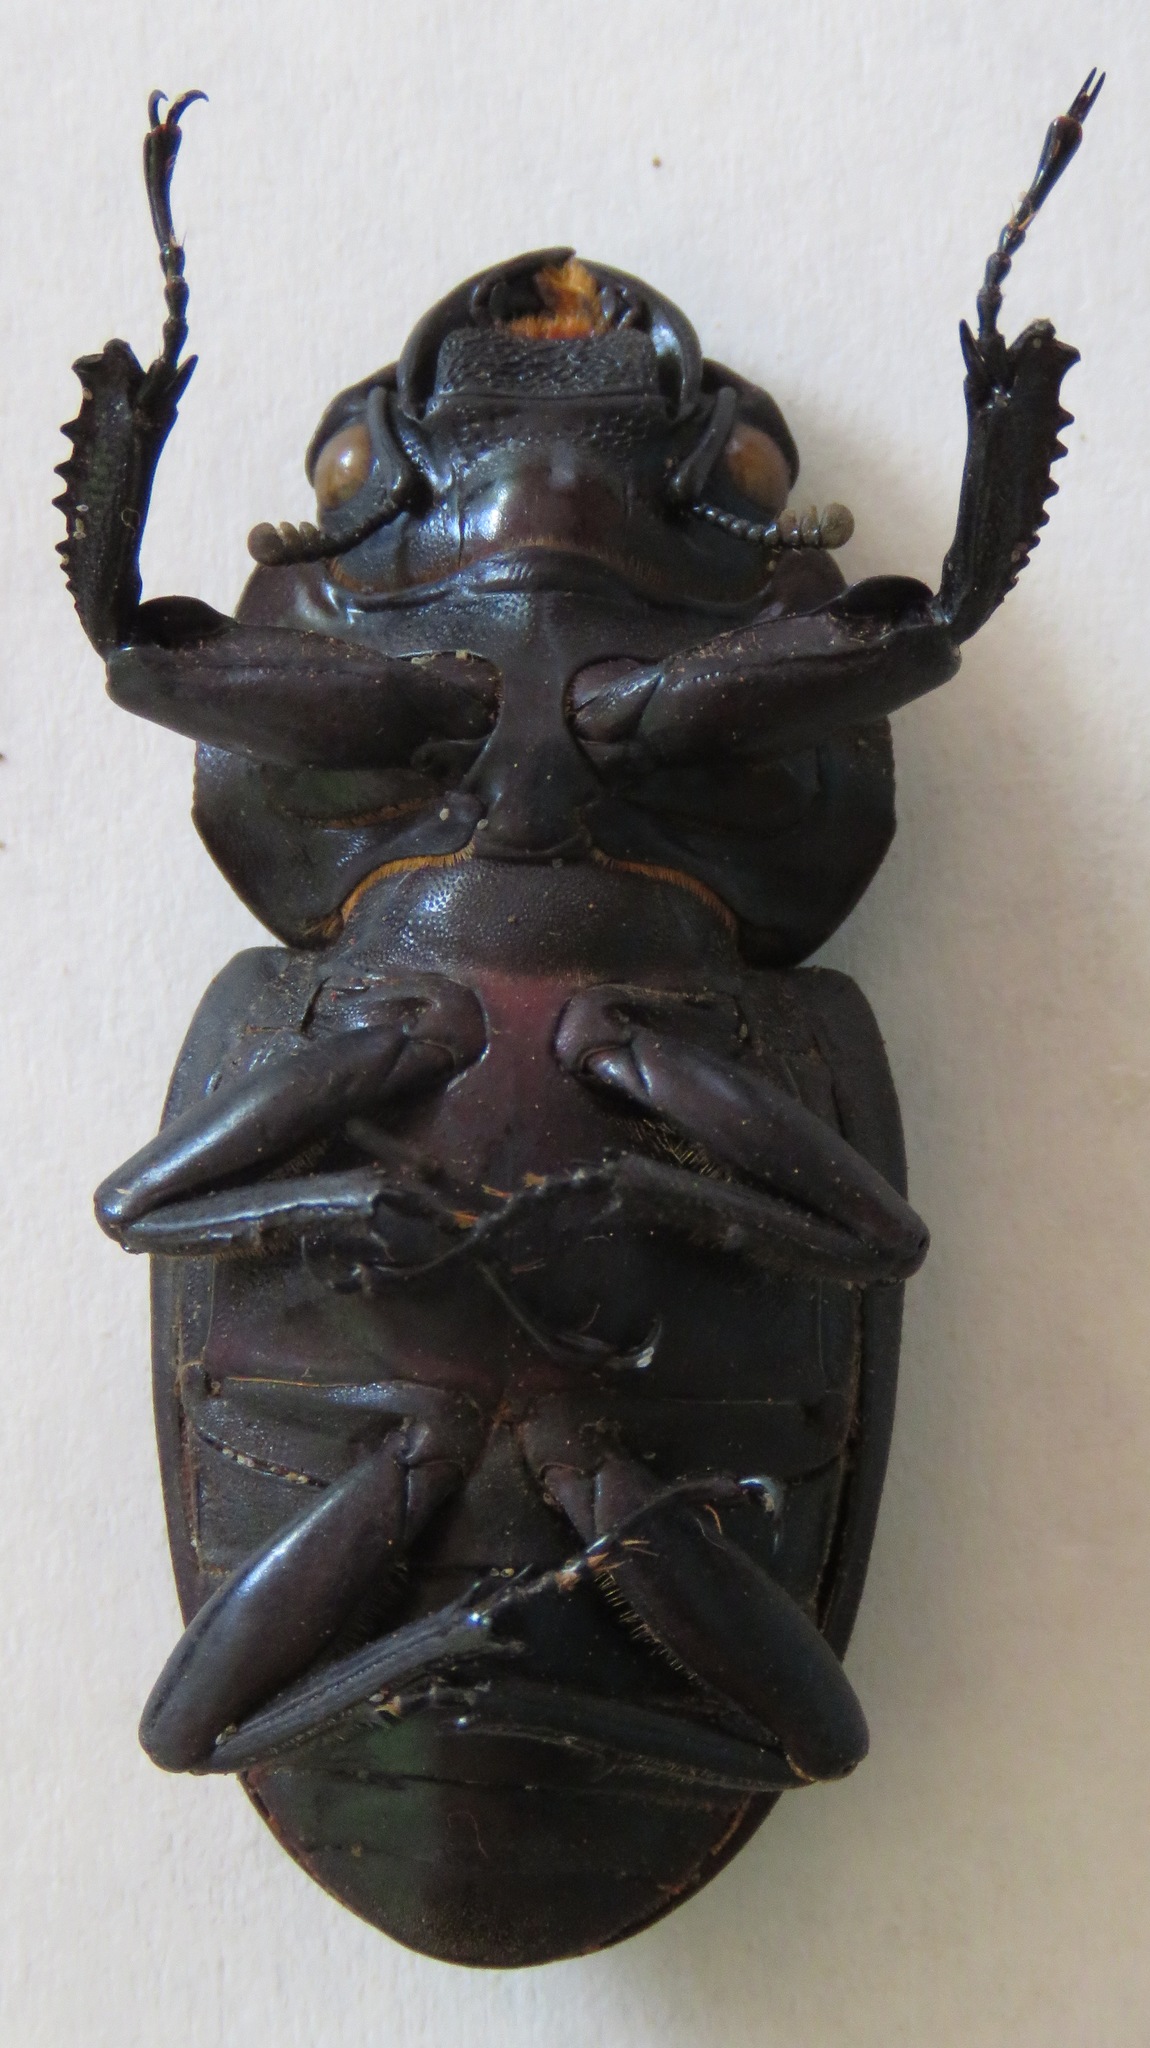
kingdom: Animalia
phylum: Arthropoda
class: Insecta
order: Coleoptera
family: Lucanidae
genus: Dorcus
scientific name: Dorcus antaeus
